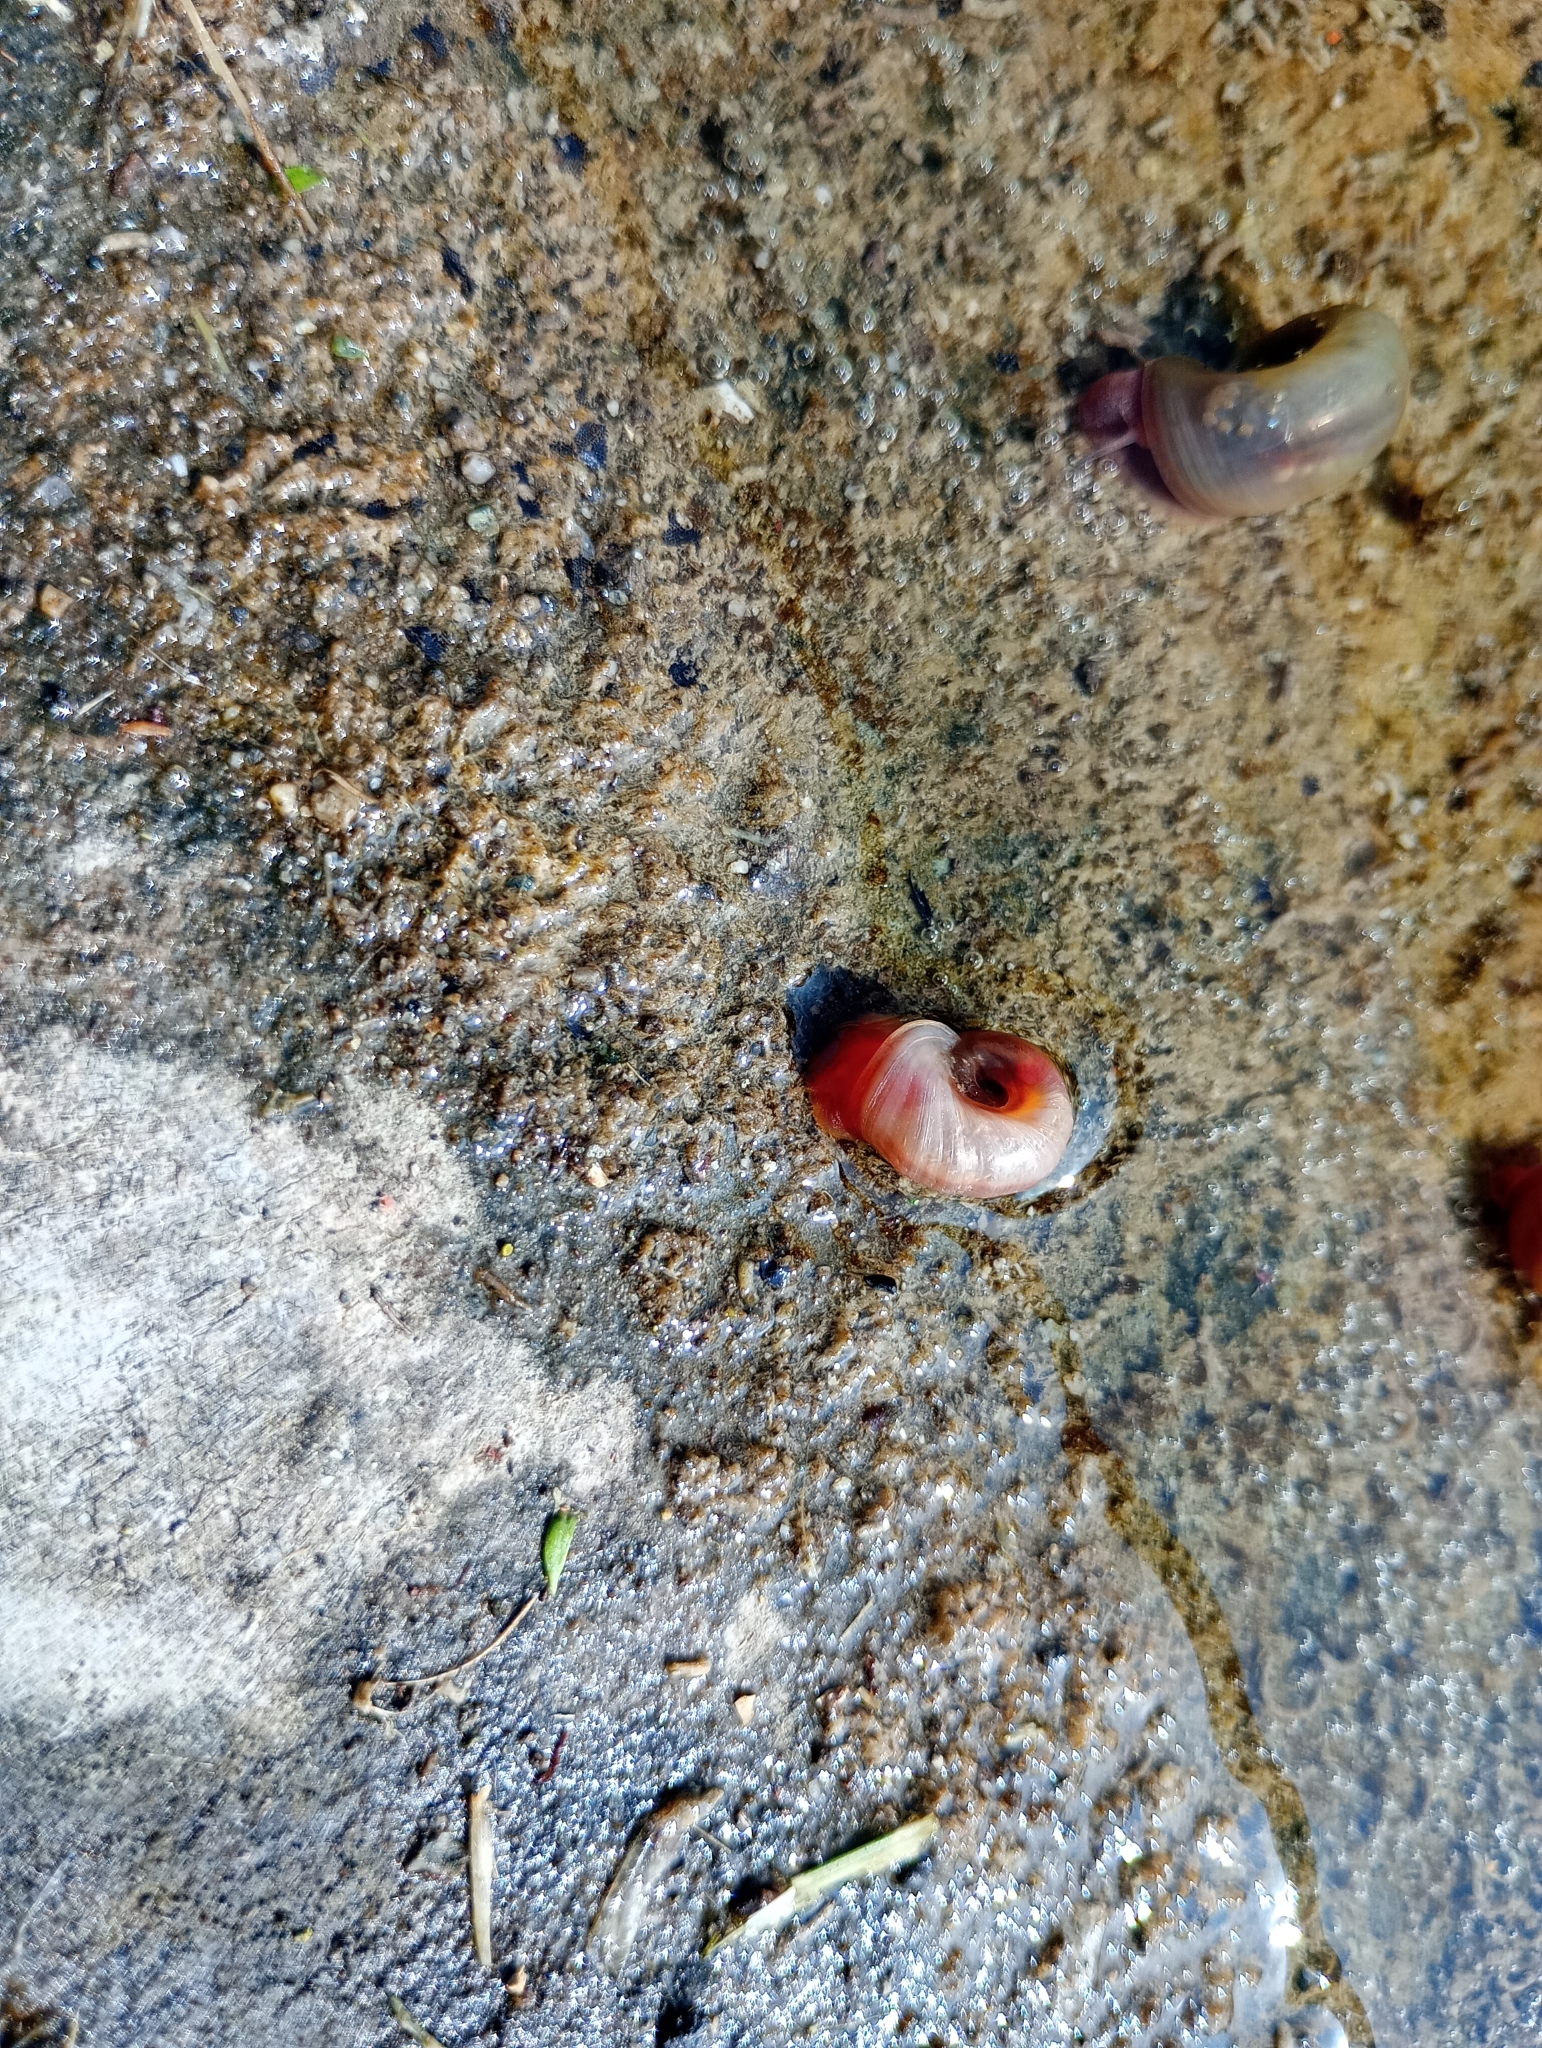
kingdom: Animalia
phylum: Mollusca
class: Gastropoda
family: Planorbidae
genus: Planorbarius
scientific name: Planorbarius corneus
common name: Great ramshorn
